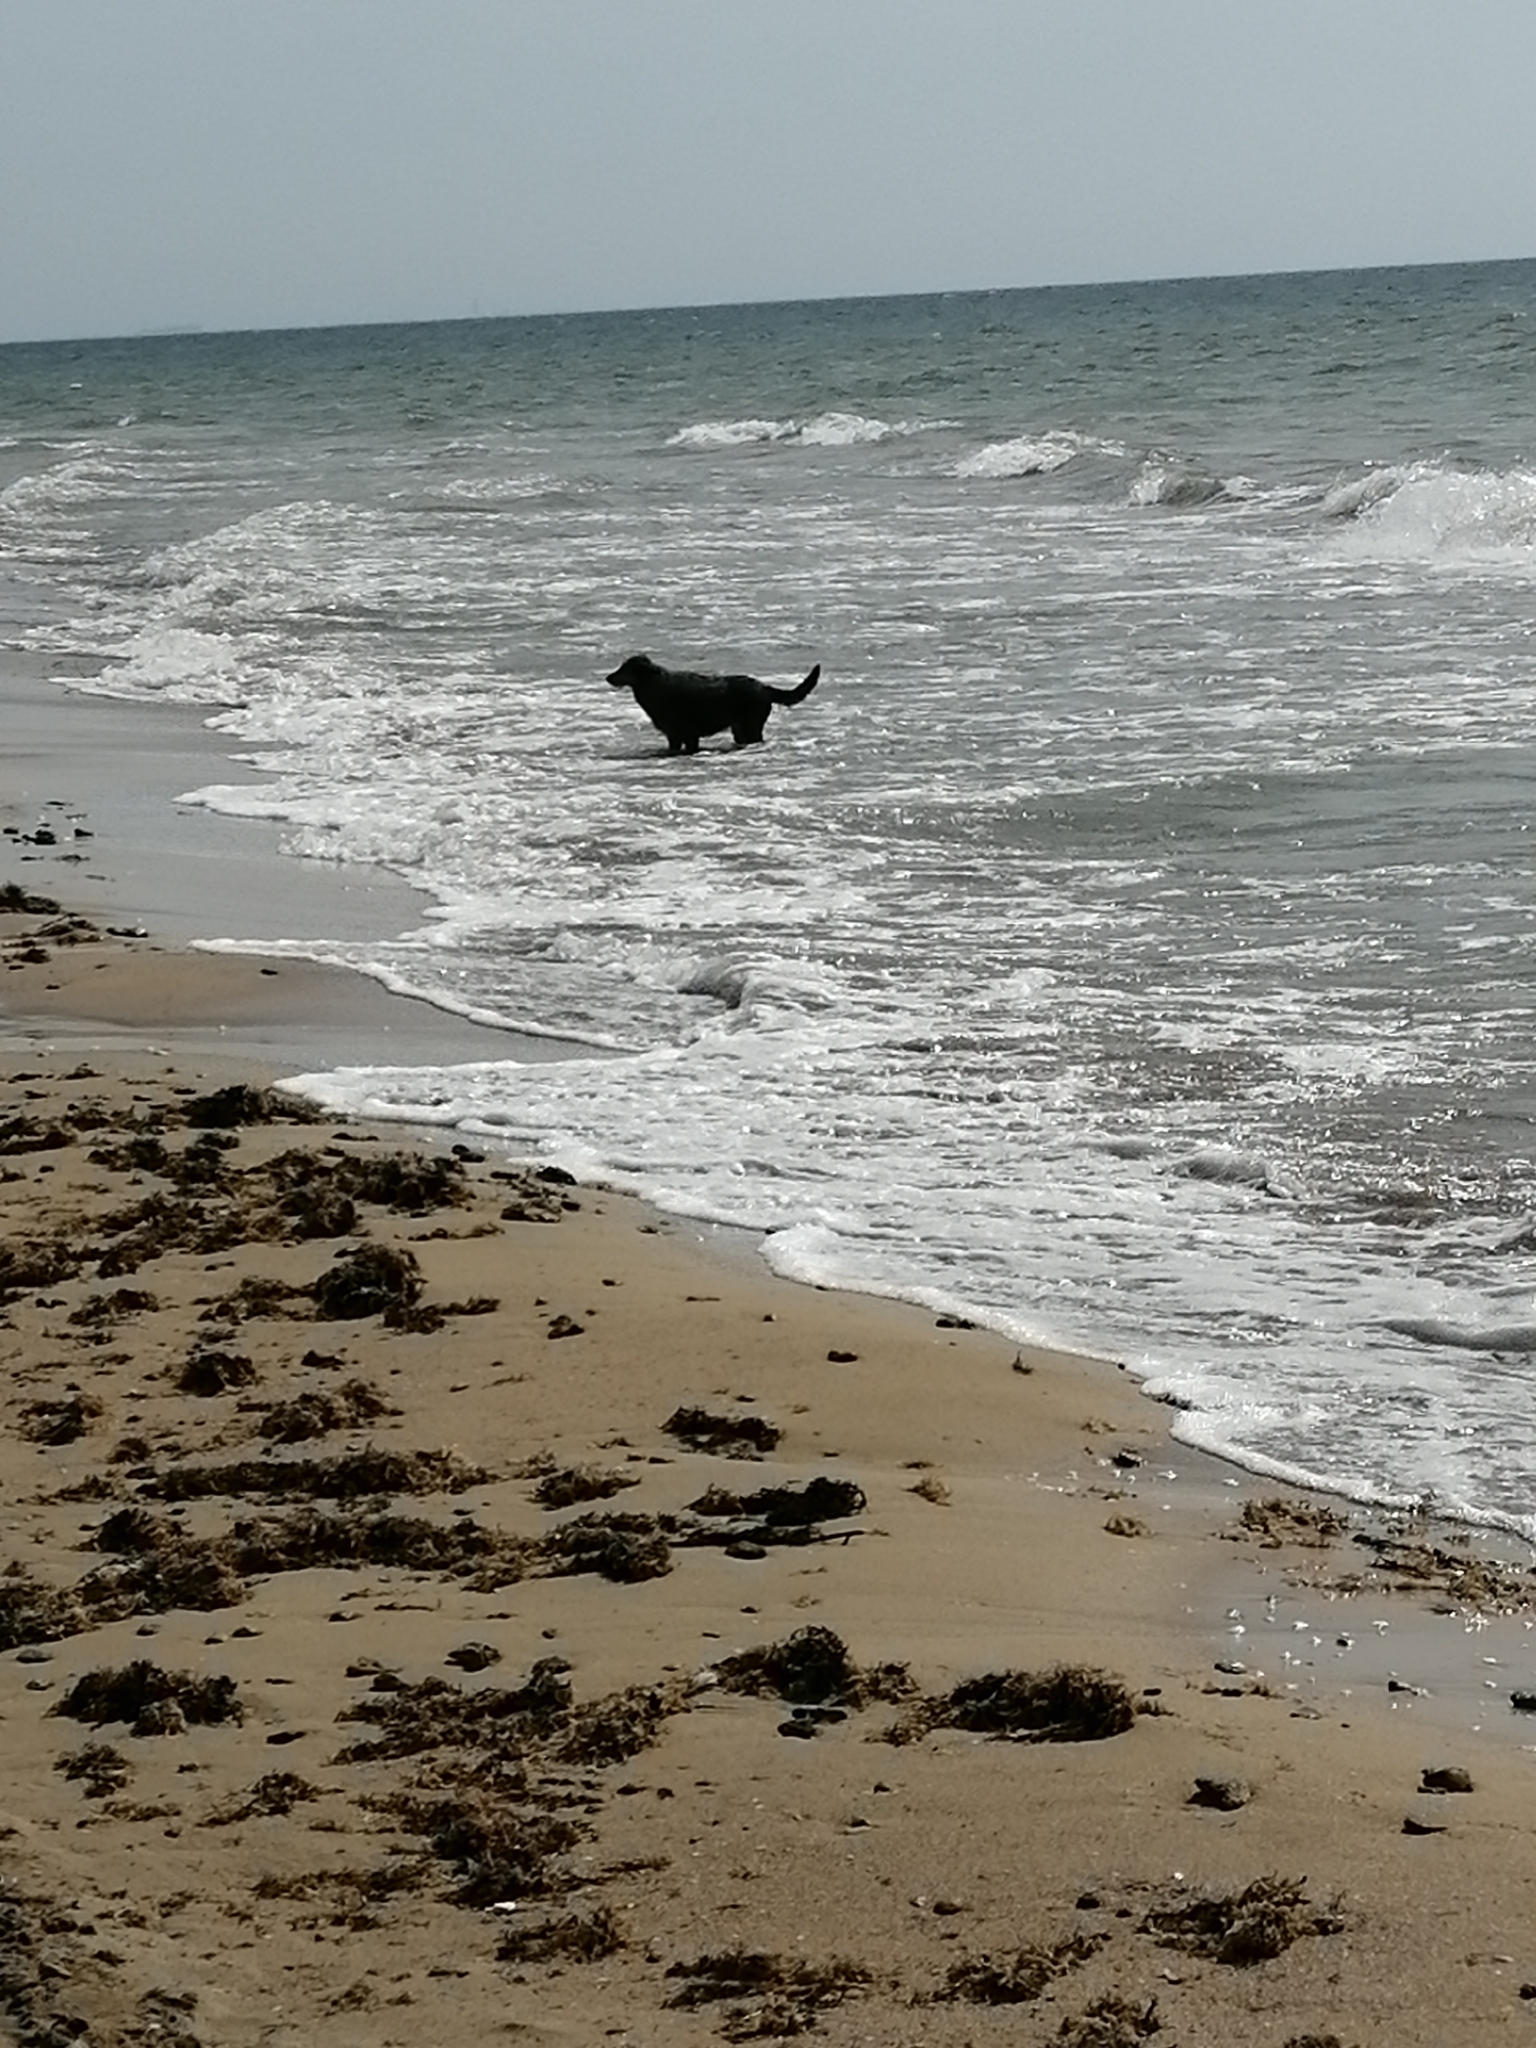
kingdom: Animalia
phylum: Chordata
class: Mammalia
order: Carnivora
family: Canidae
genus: Canis
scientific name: Canis lupus
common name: Gray wolf
